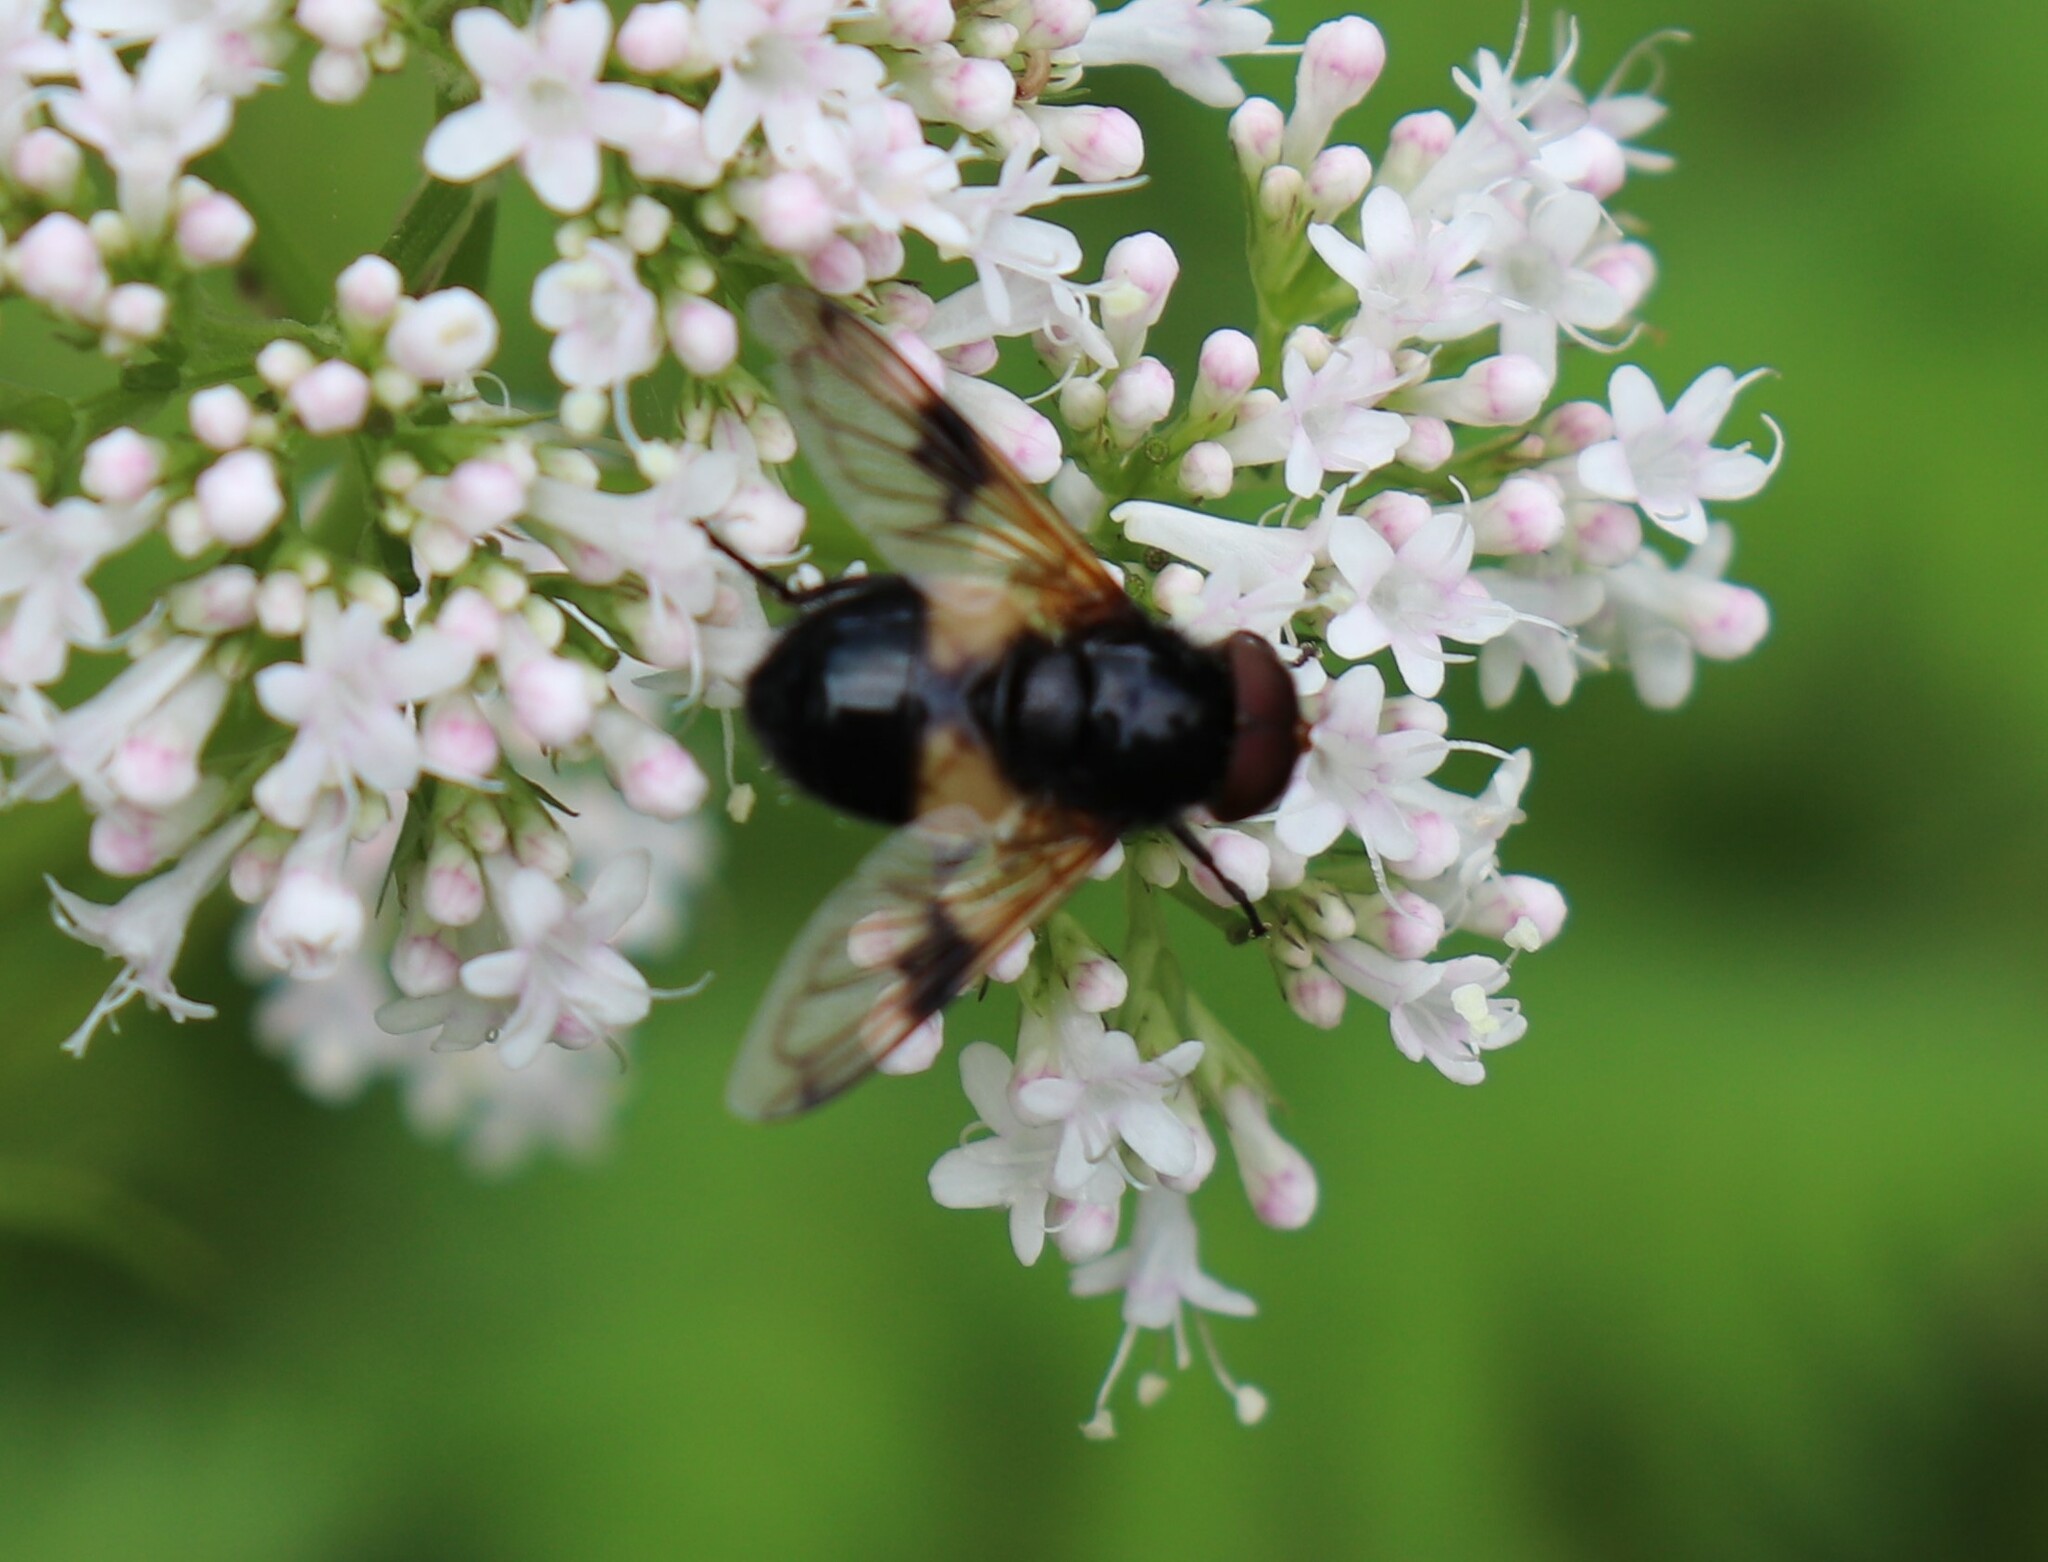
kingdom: Animalia
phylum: Arthropoda
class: Insecta
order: Diptera
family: Syrphidae
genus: Volucella
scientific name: Volucella pellucens
